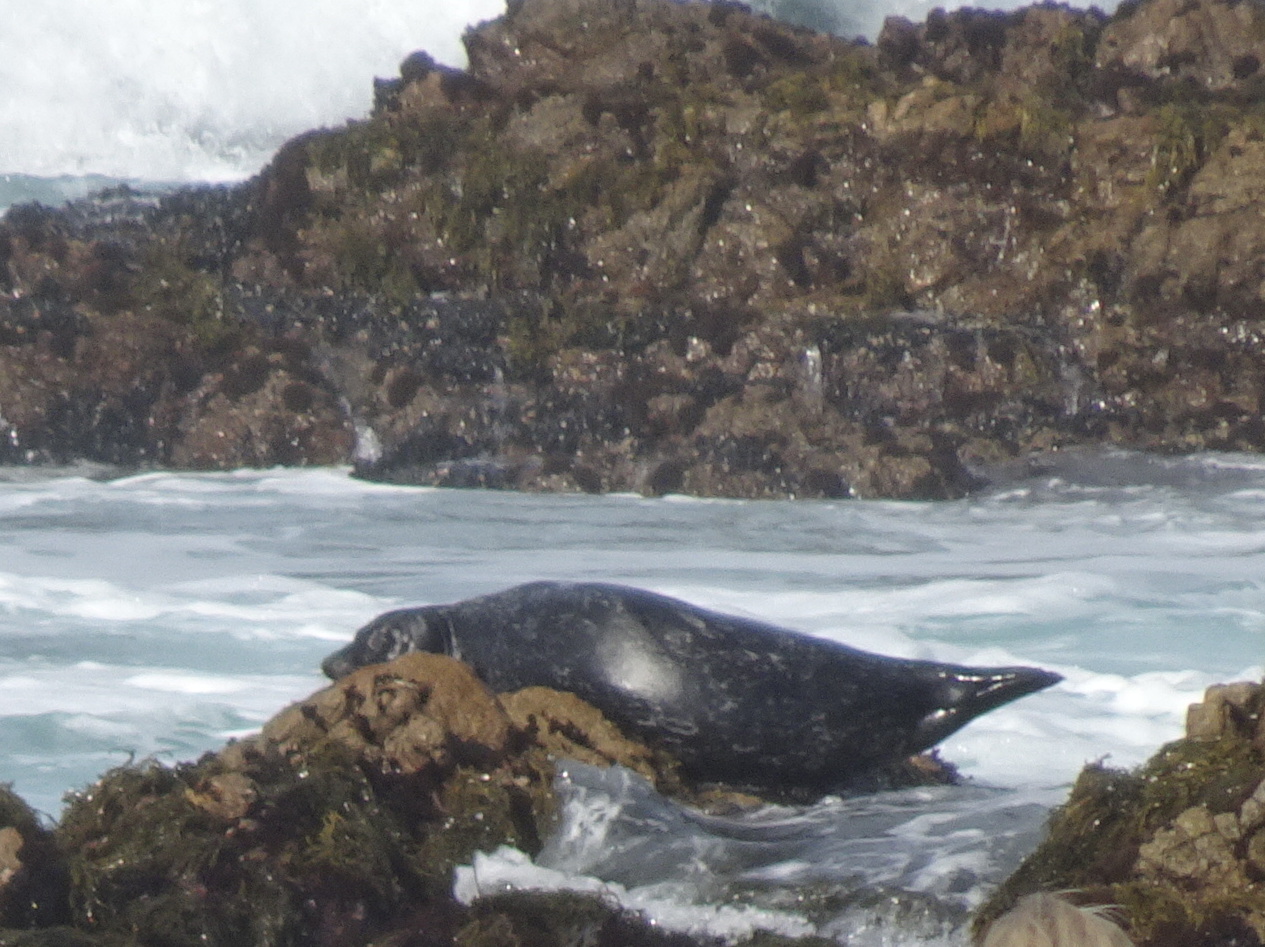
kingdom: Animalia
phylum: Chordata
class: Mammalia
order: Carnivora
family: Phocidae
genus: Phoca
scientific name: Phoca vitulina
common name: Harbor seal
